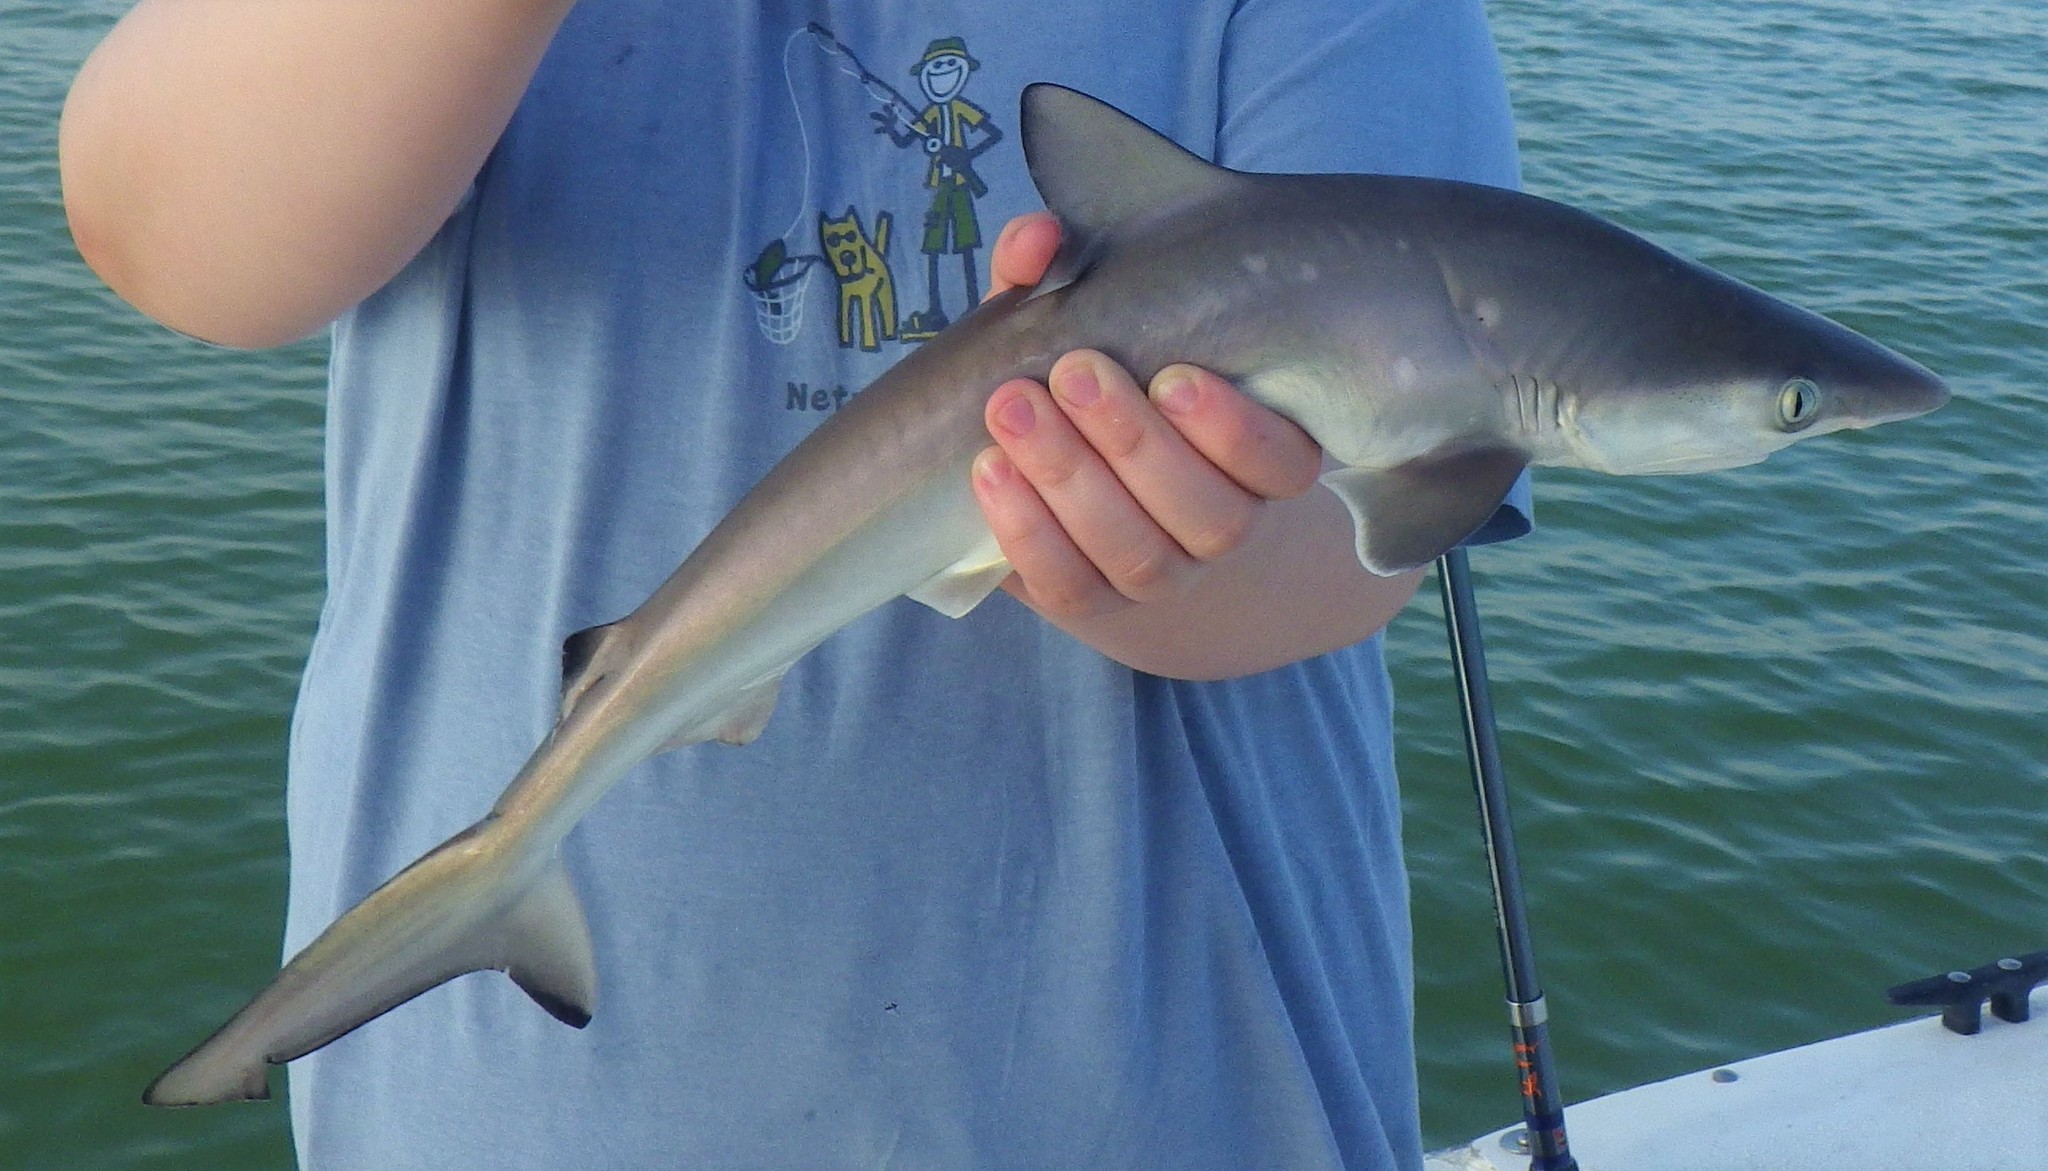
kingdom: Animalia
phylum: Chordata
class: Elasmobranchii
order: Carcharhiniformes
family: Carcharhinidae
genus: Rhizoprionodon
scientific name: Rhizoprionodon terraenovae
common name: Atlantic sharpnose shark
